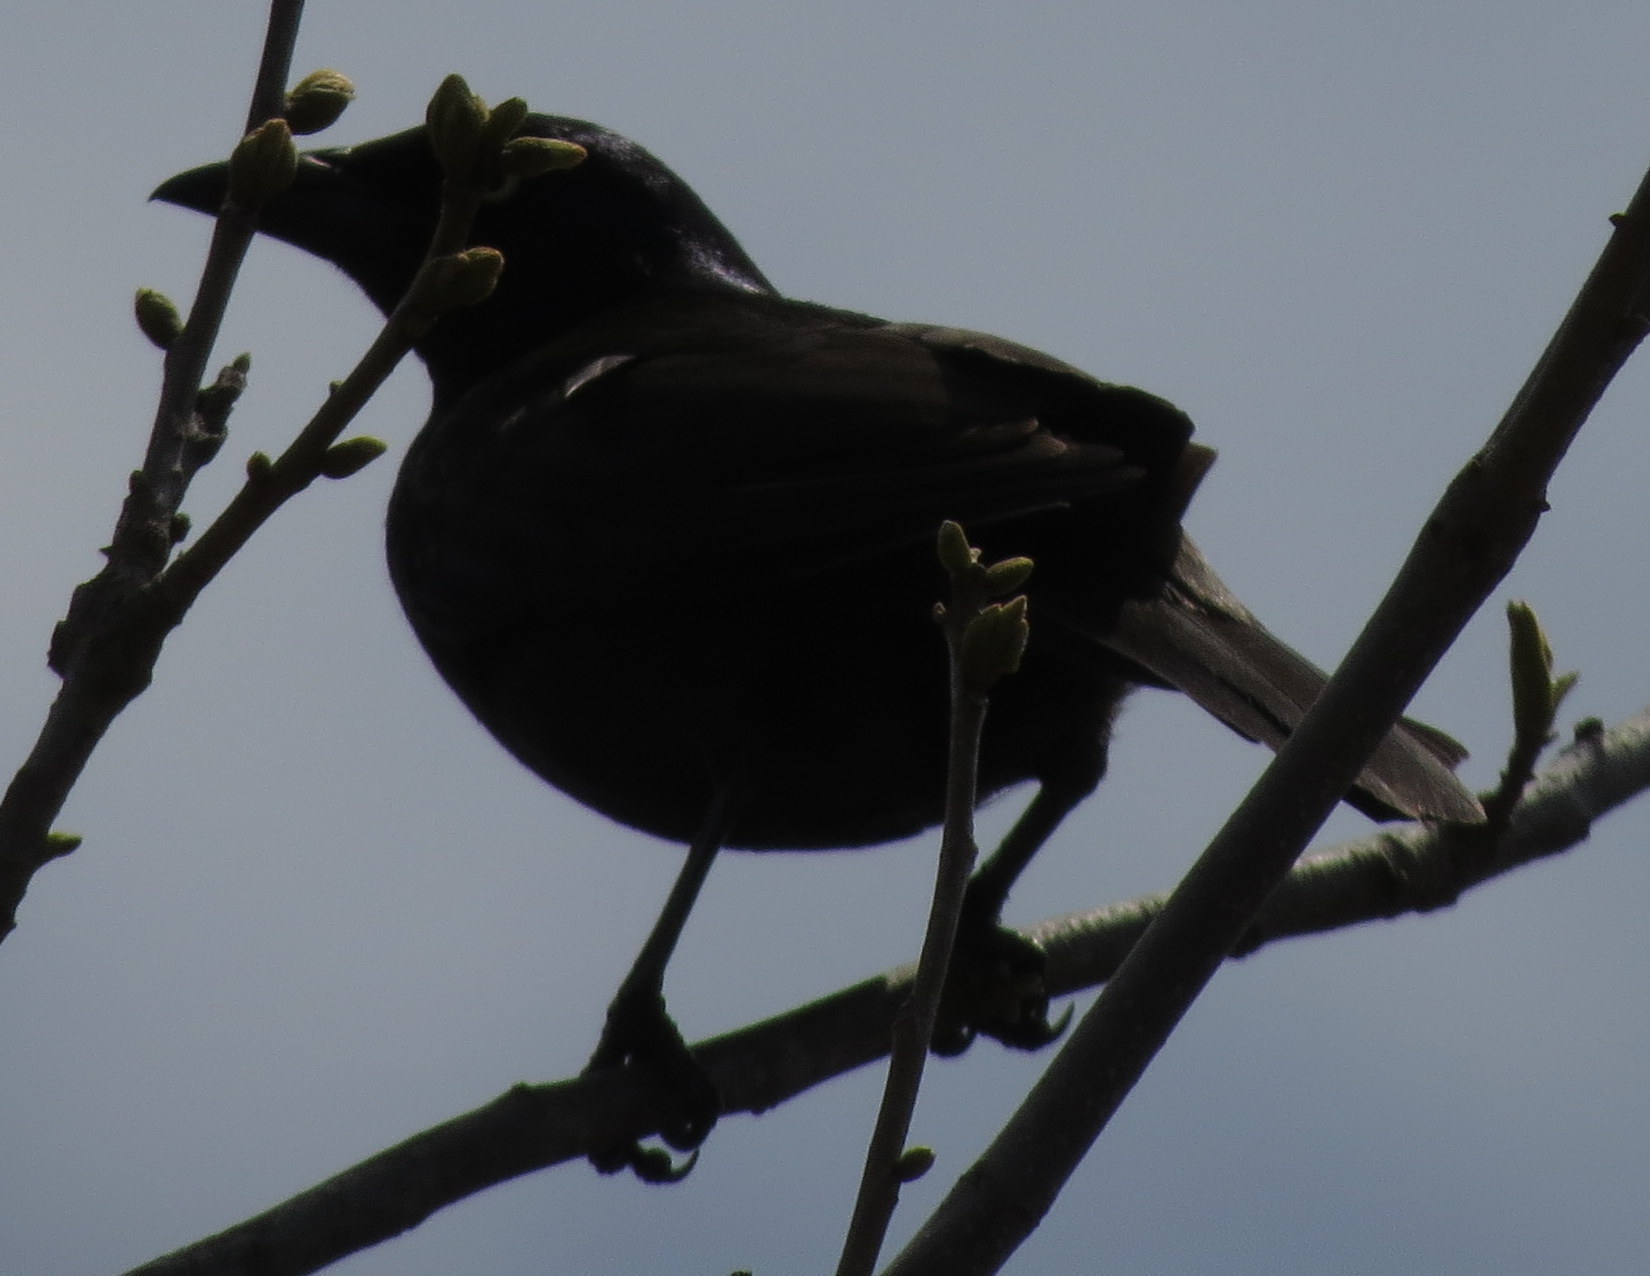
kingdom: Animalia
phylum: Chordata
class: Aves
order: Passeriformes
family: Icteridae
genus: Quiscalus
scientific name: Quiscalus quiscula
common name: Common grackle
